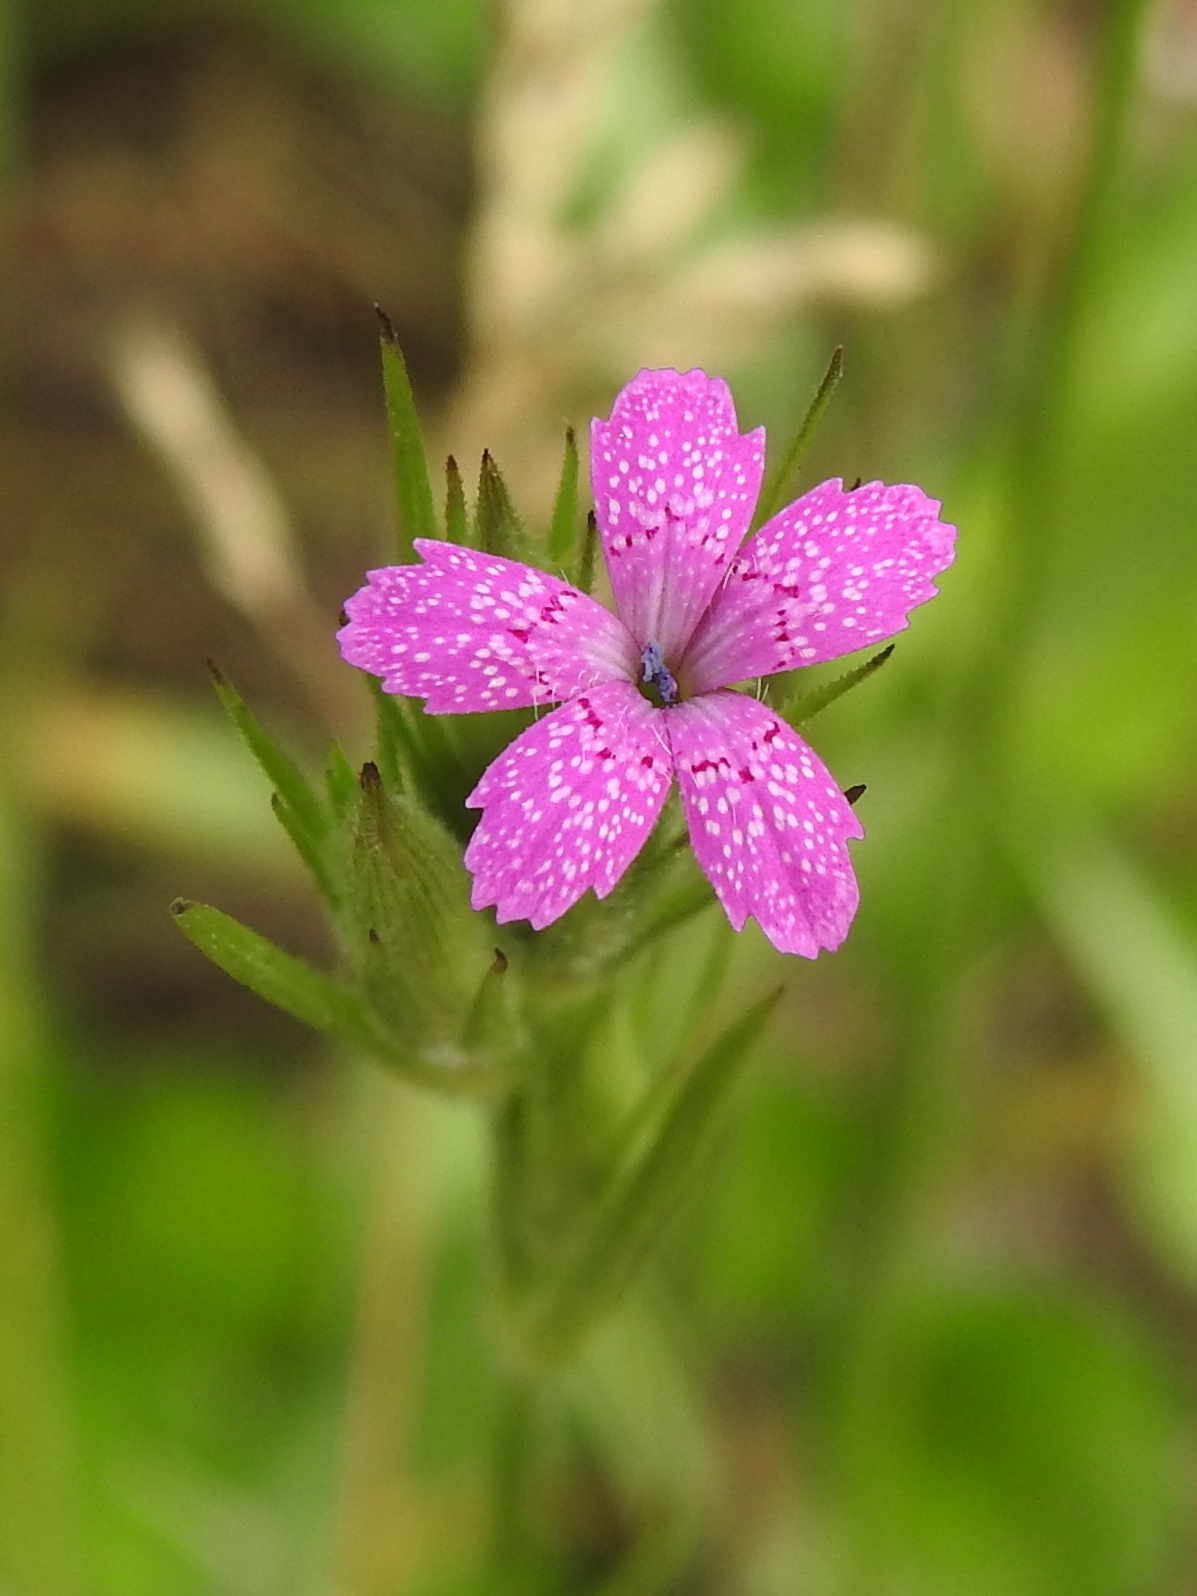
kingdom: Plantae
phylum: Tracheophyta
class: Magnoliopsida
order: Caryophyllales
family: Caryophyllaceae
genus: Dianthus
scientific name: Dianthus armeria
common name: Deptford pink
